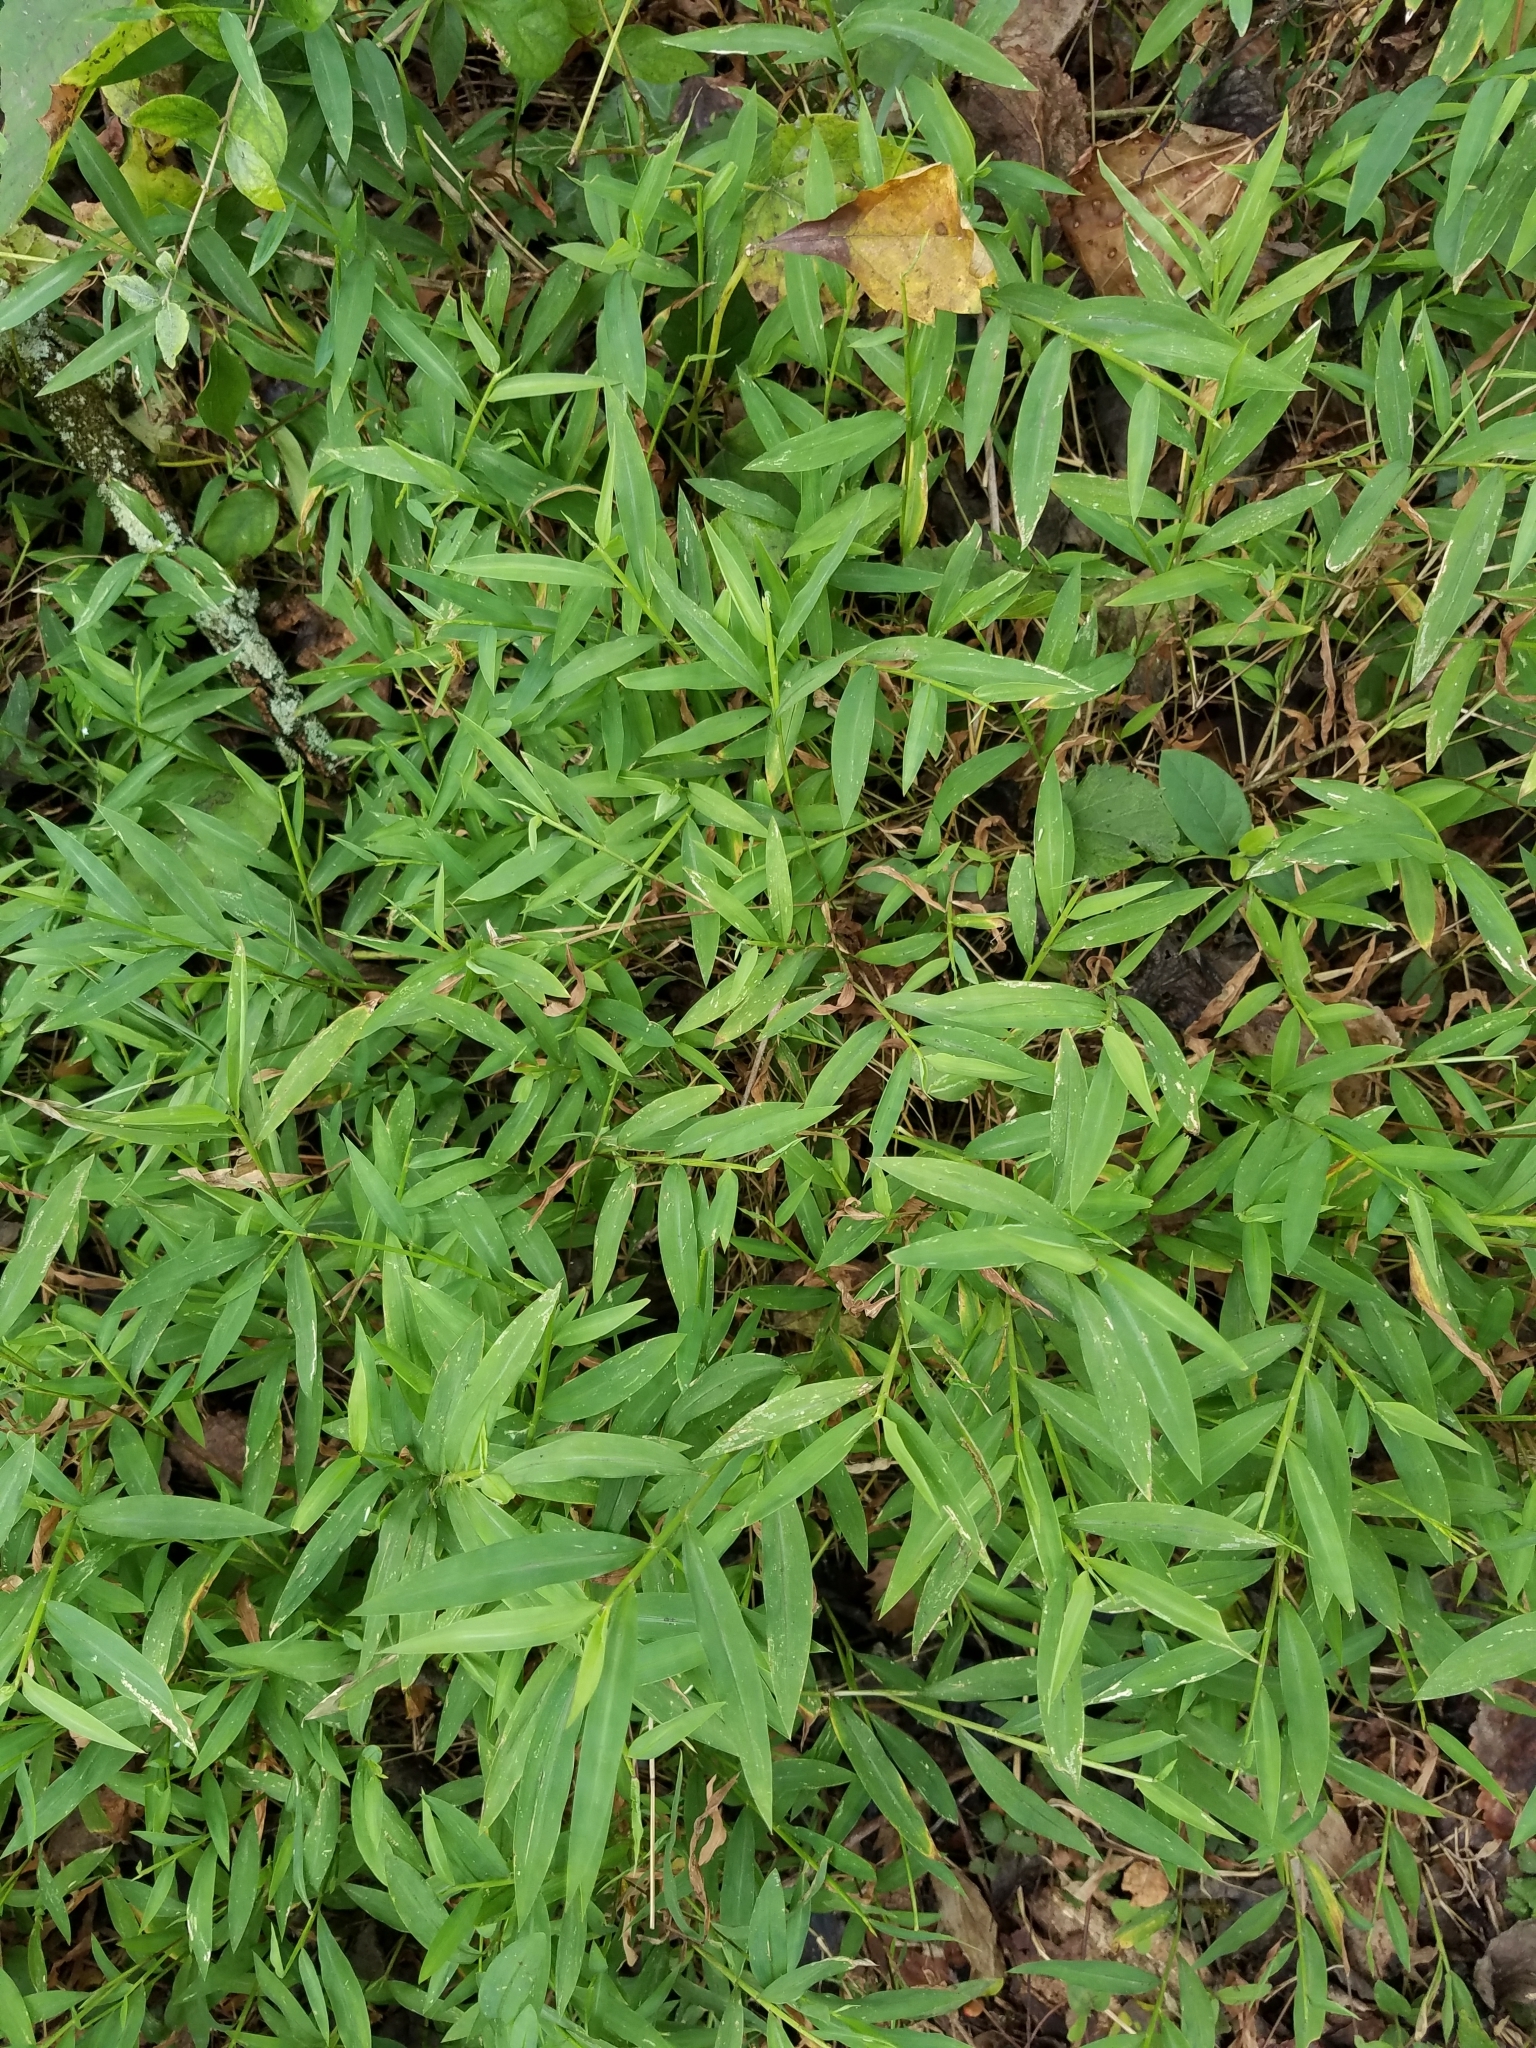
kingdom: Plantae
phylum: Tracheophyta
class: Liliopsida
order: Poales
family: Poaceae
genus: Microstegium
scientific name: Microstegium vimineum
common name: Japanese stiltgrass
